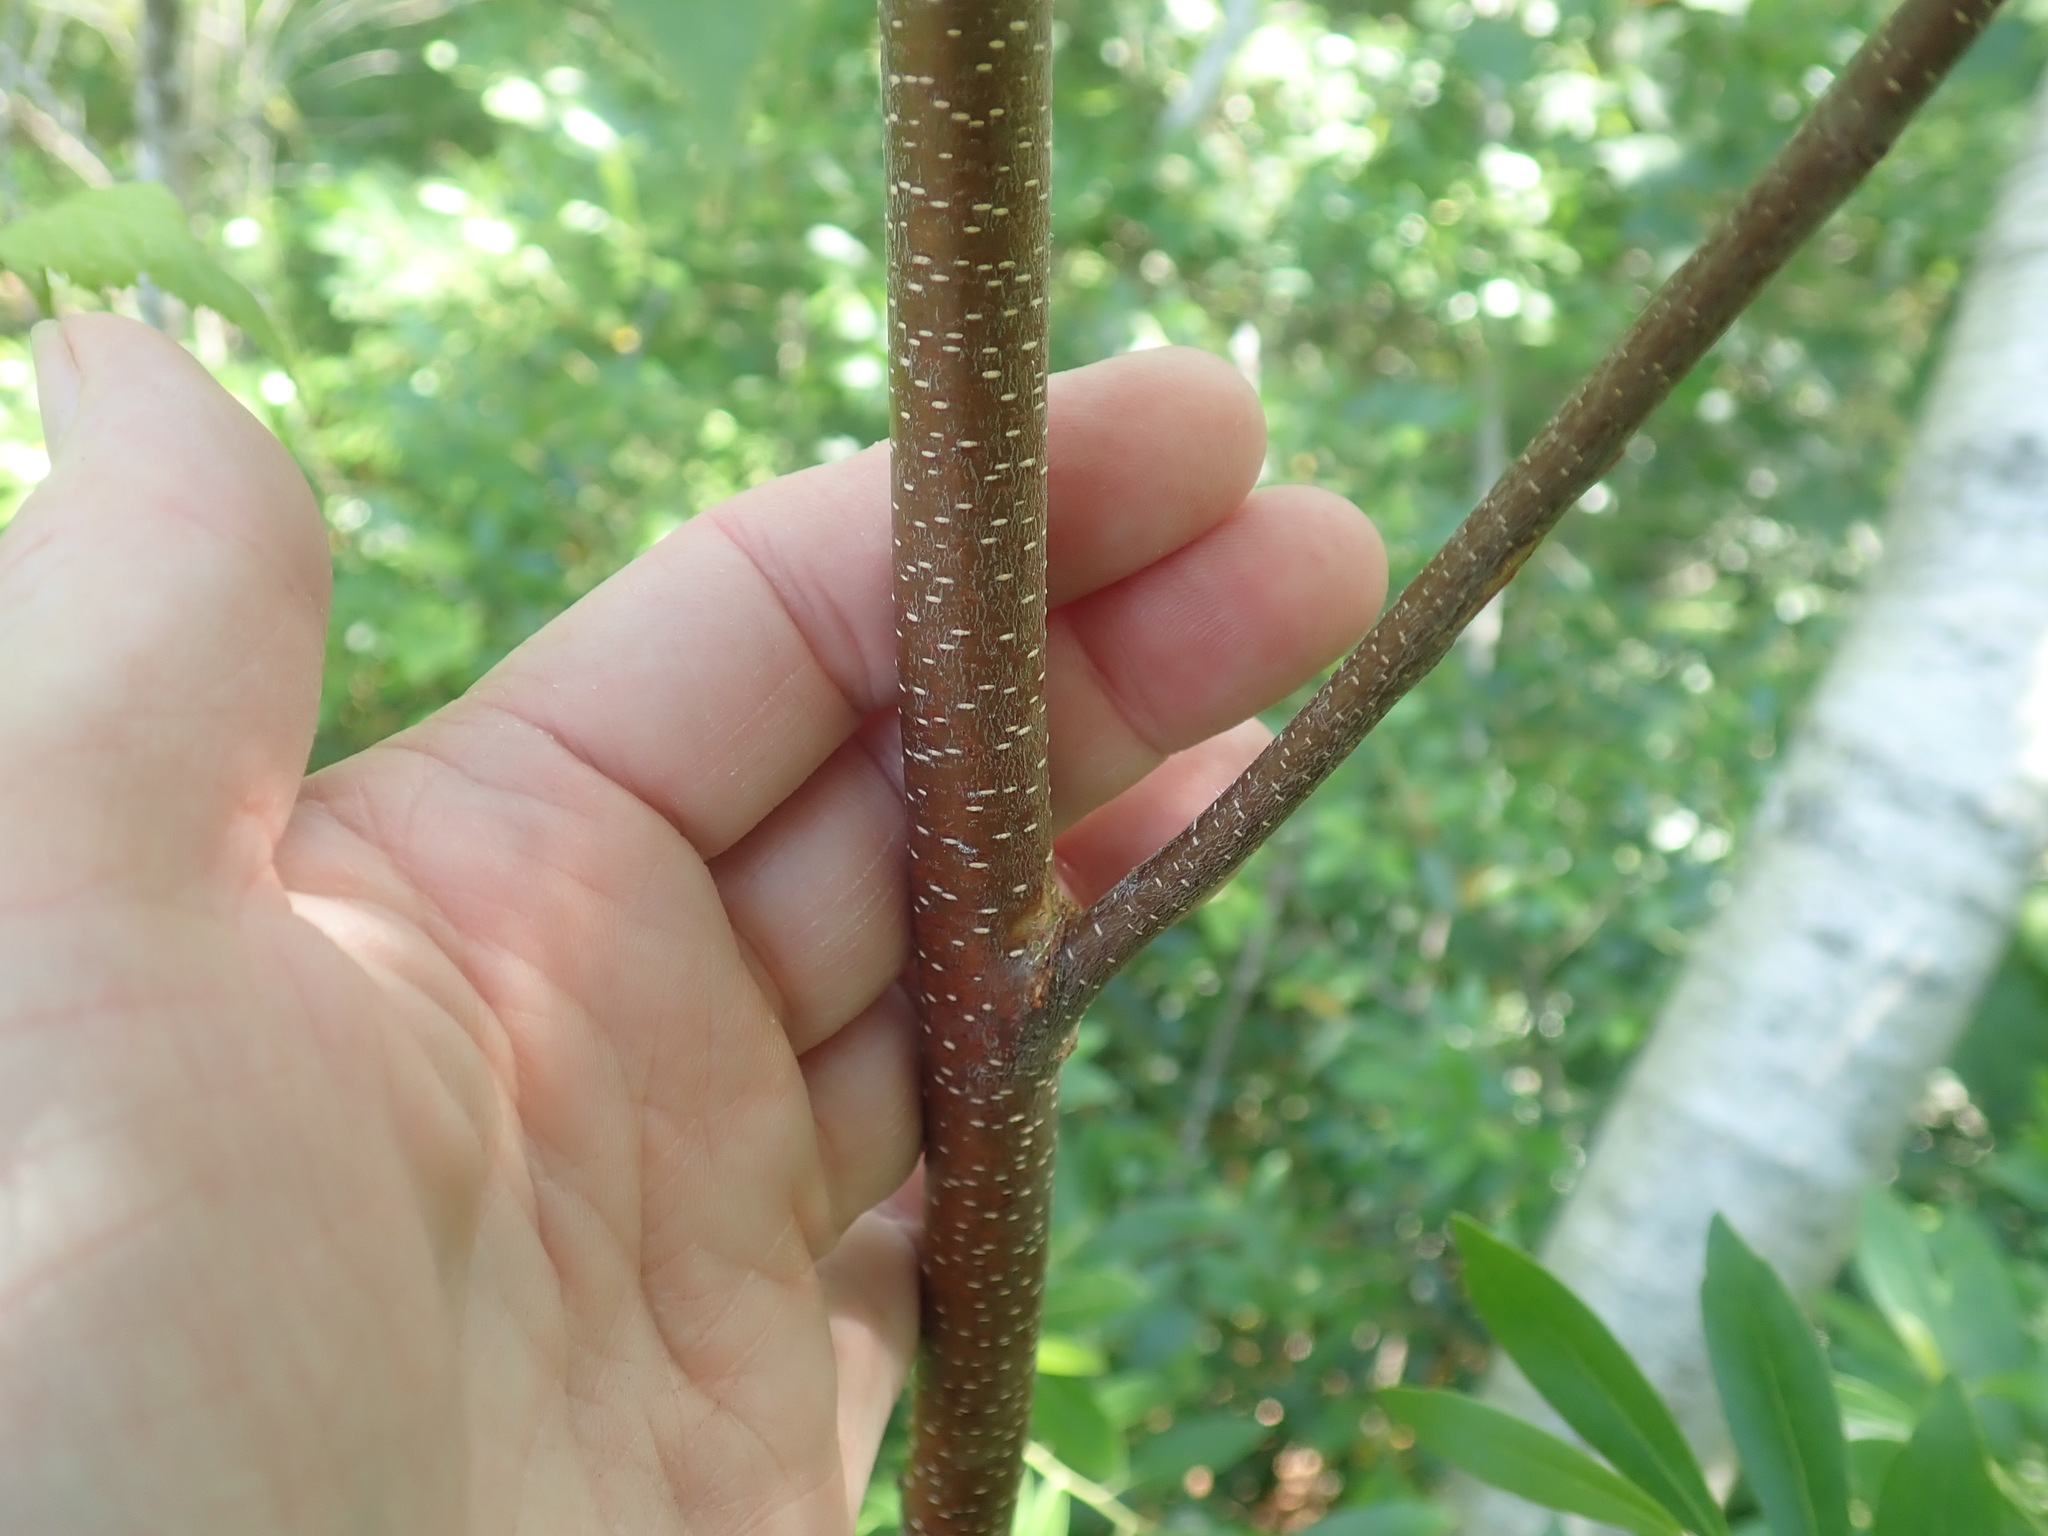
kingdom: Plantae
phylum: Tracheophyta
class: Magnoliopsida
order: Fagales
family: Betulaceae
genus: Betula
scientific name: Betula populifolia
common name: Fire birch
